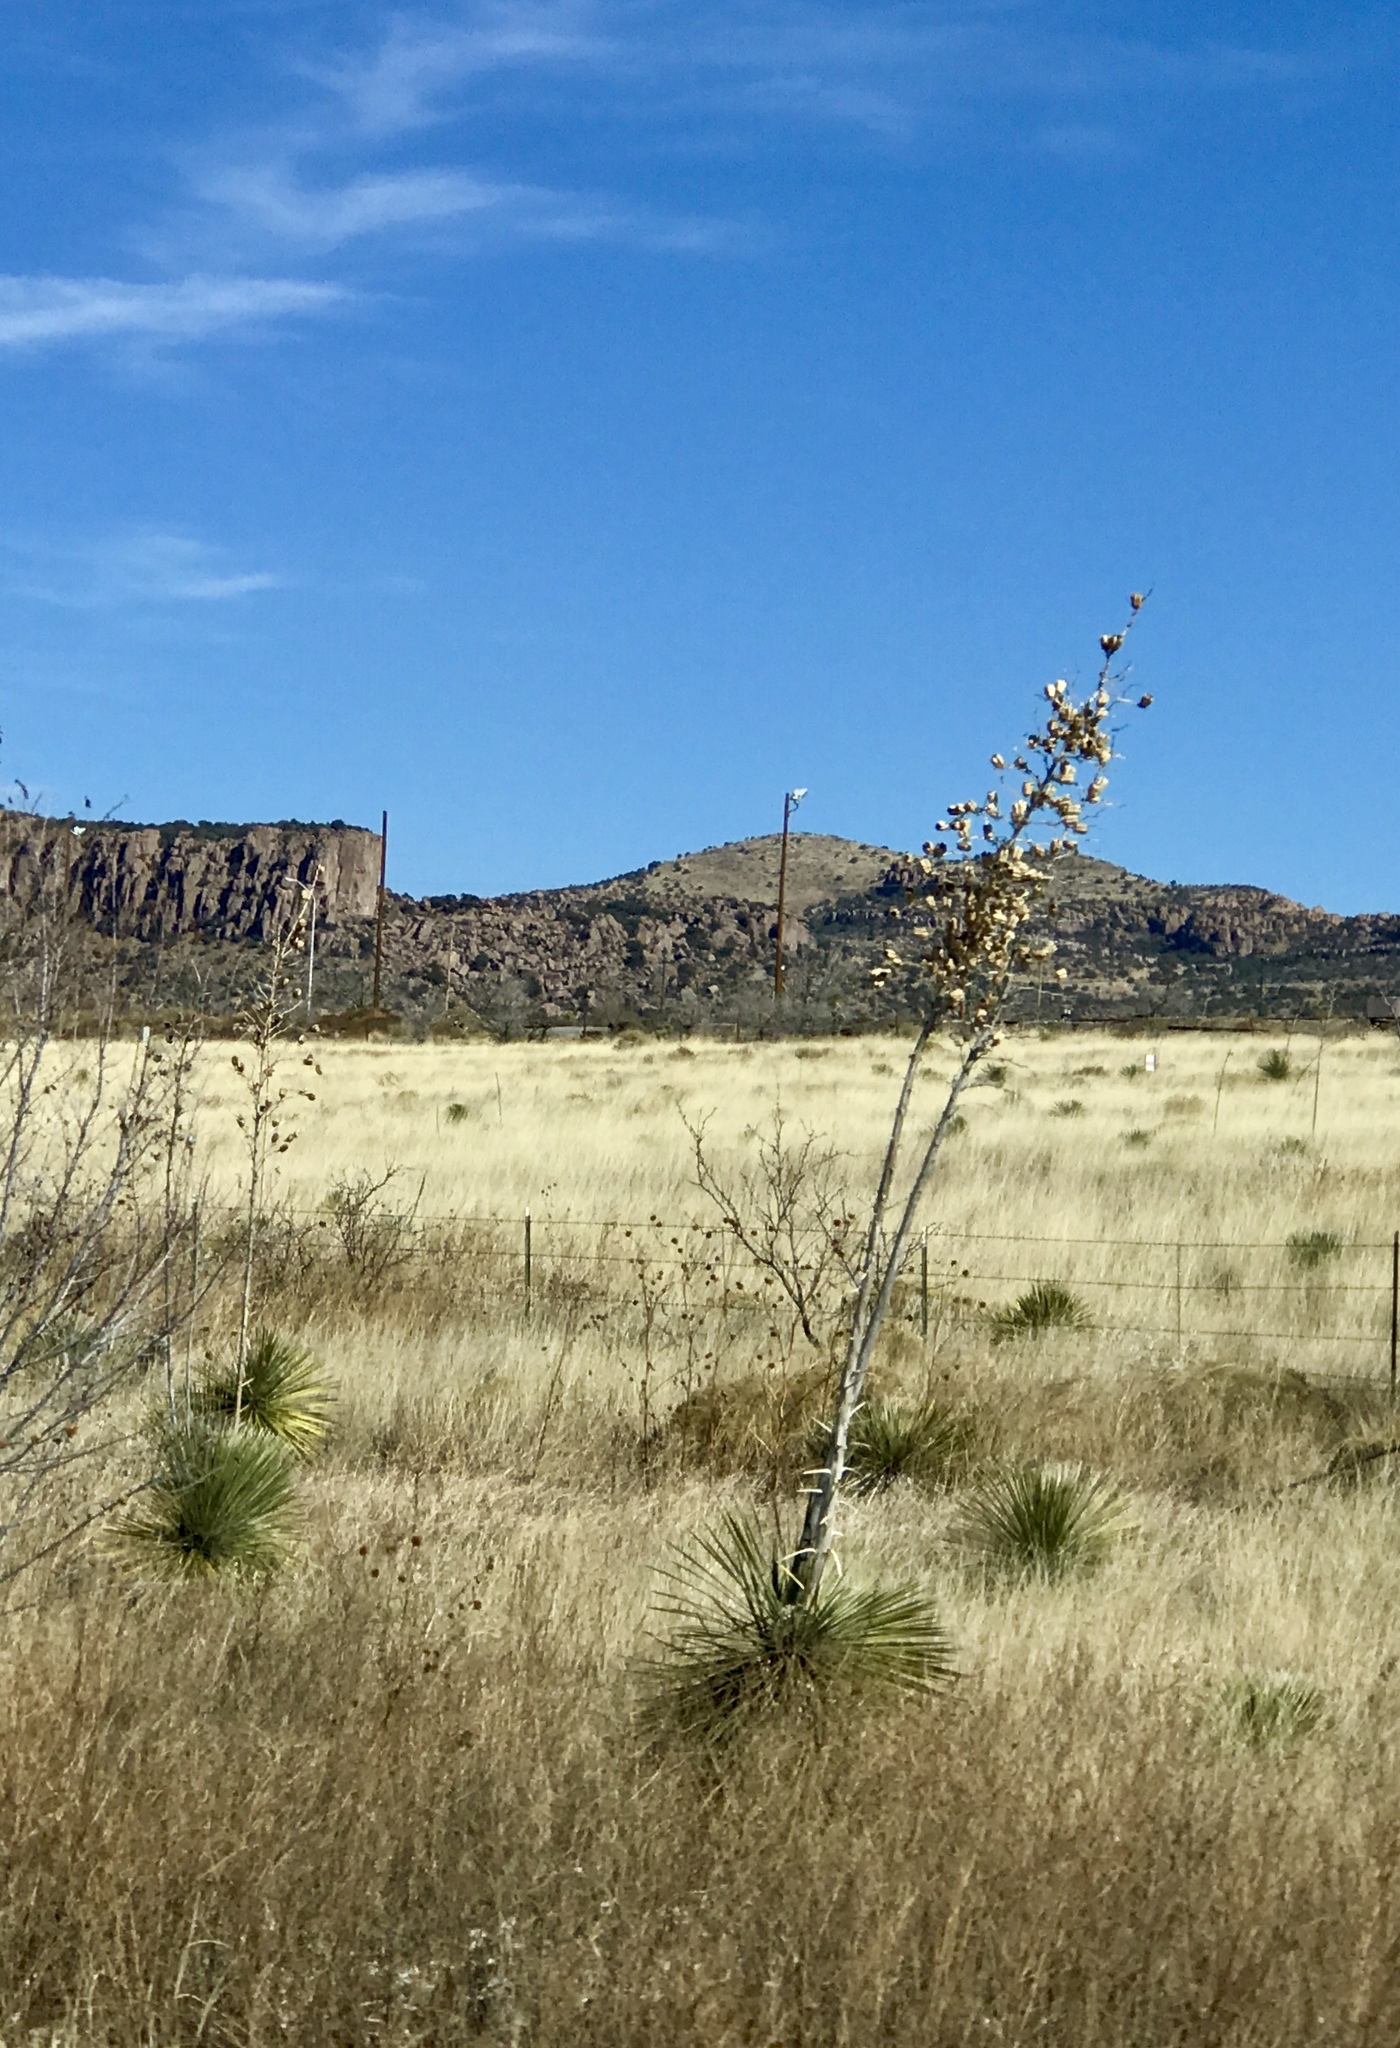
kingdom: Plantae
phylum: Tracheophyta
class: Liliopsida
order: Asparagales
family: Asparagaceae
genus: Yucca
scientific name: Yucca elata
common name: Palmella
